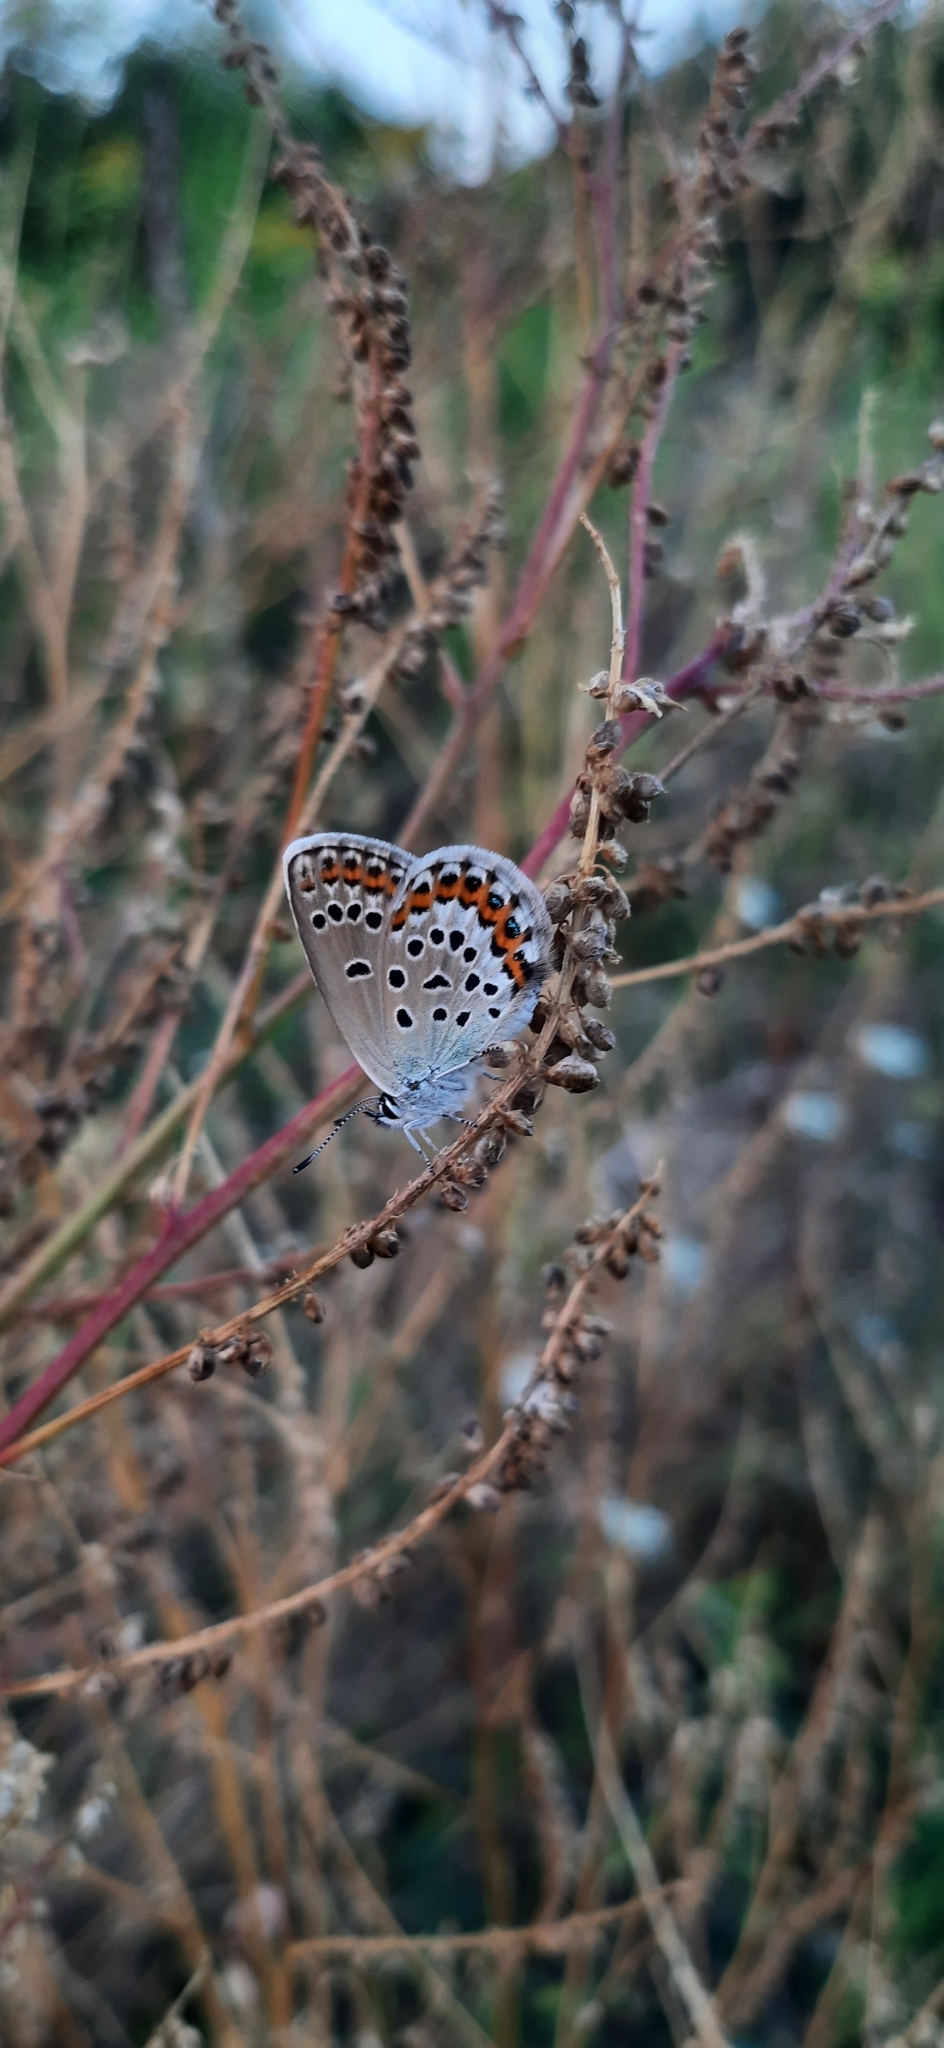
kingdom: Animalia
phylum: Arthropoda
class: Insecta
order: Lepidoptera
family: Lycaenidae
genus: Lycaeides
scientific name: Lycaeides idas
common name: Northern blue
